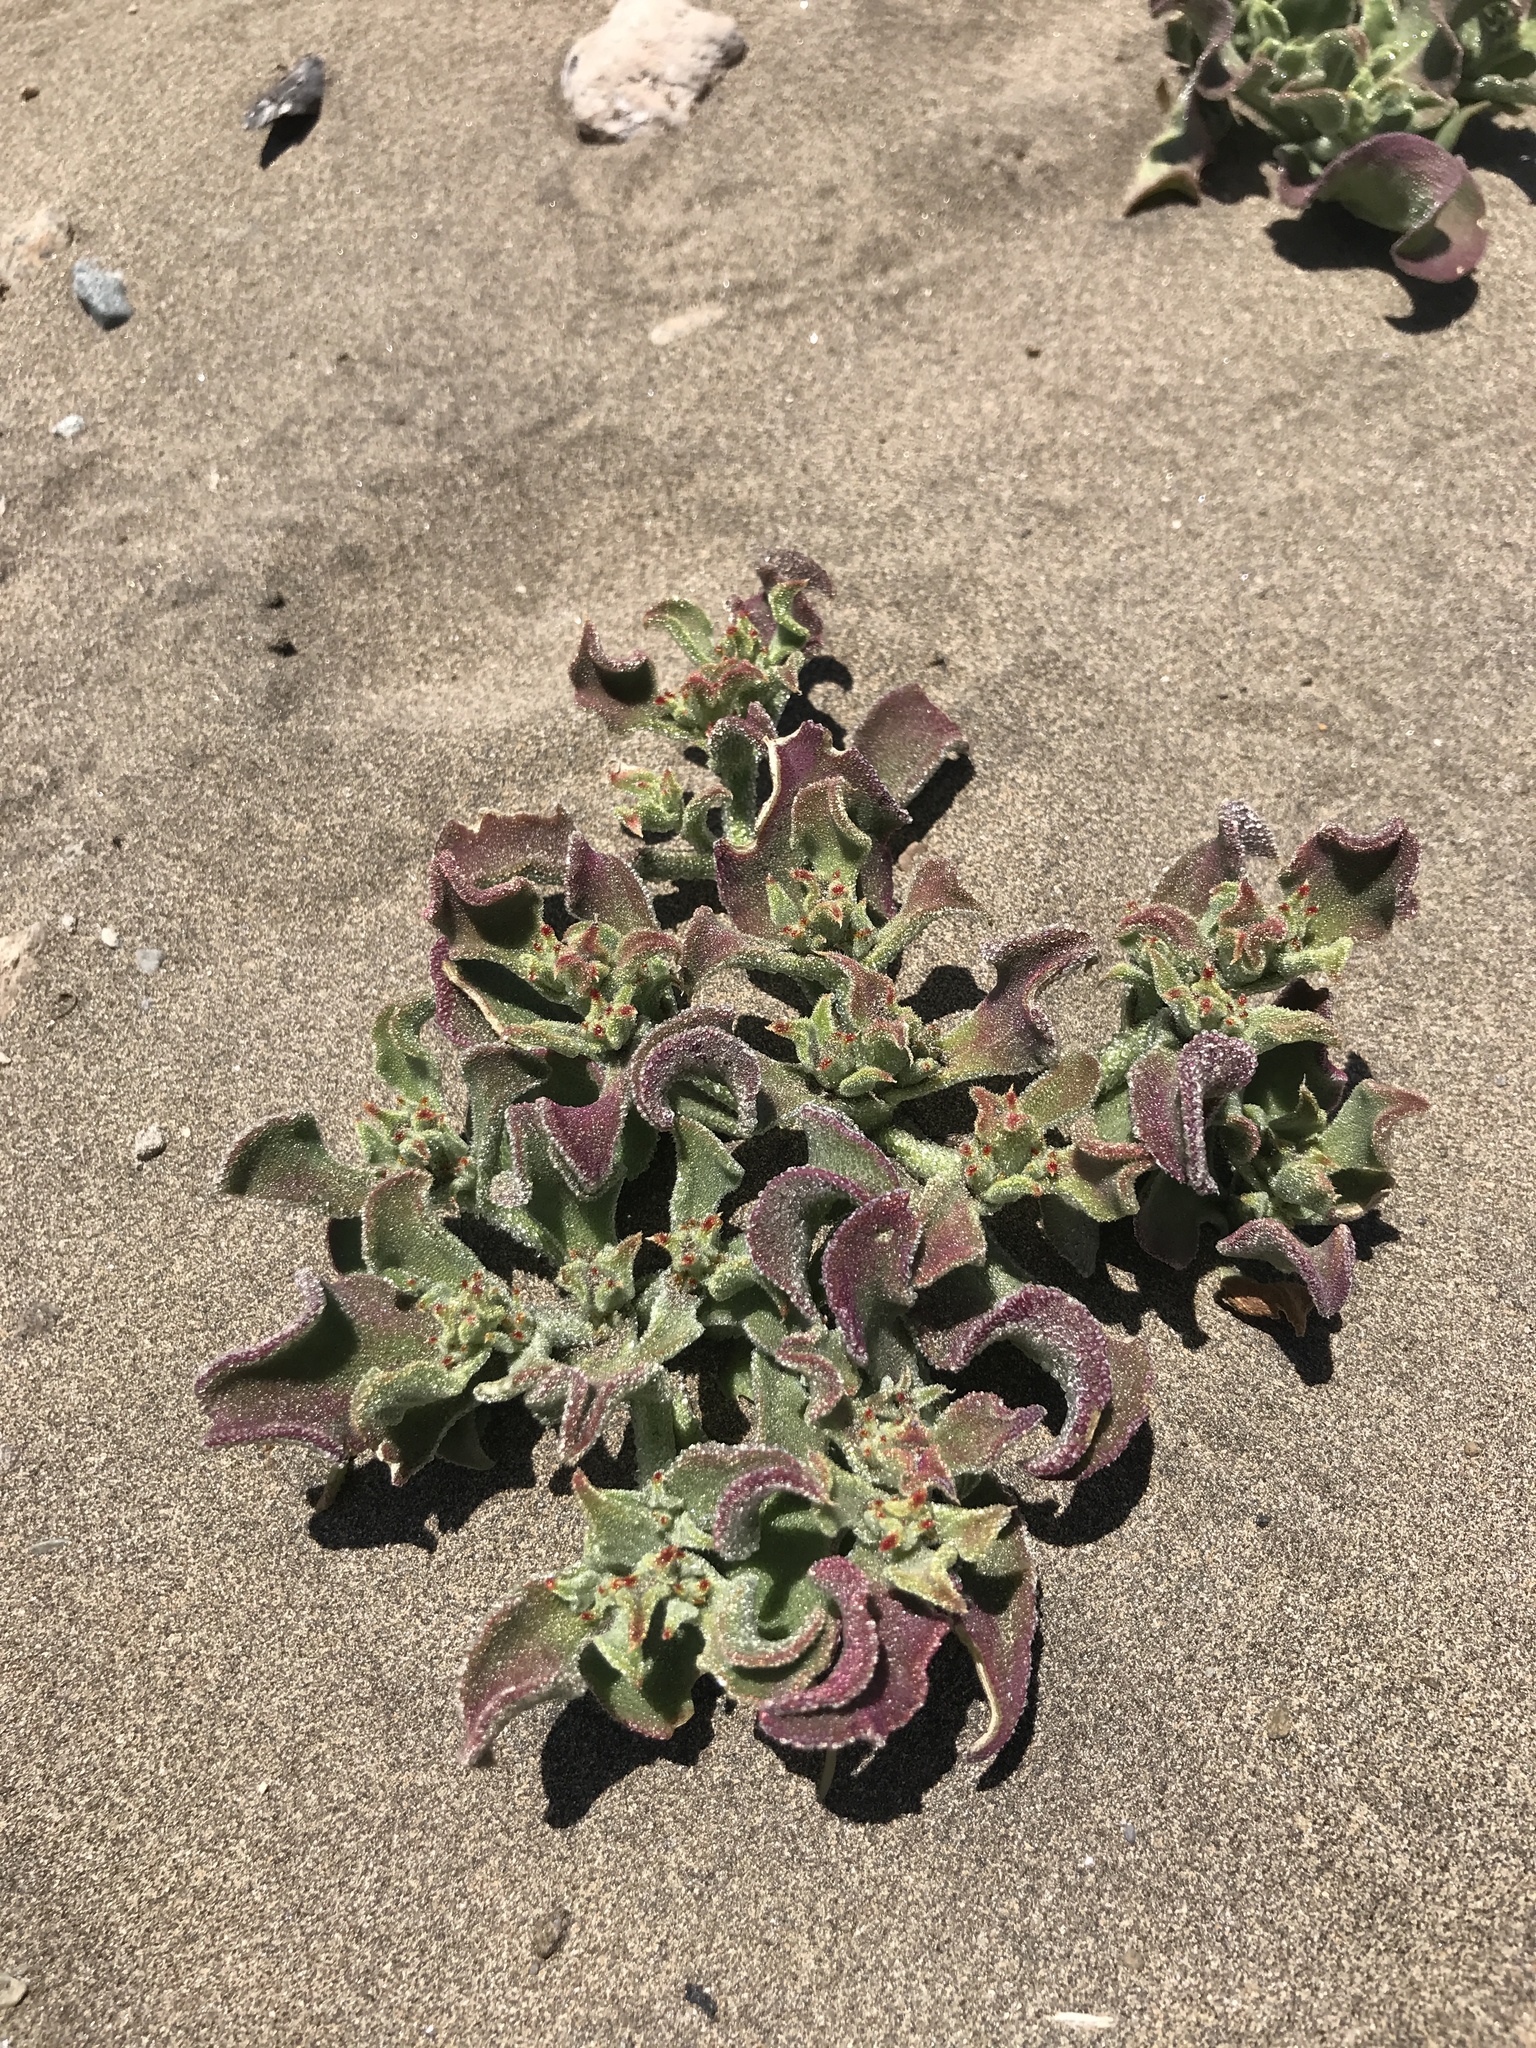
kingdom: Plantae
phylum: Tracheophyta
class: Magnoliopsida
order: Caryophyllales
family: Aizoaceae
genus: Mesembryanthemum
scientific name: Mesembryanthemum crystallinum
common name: Common iceplant
